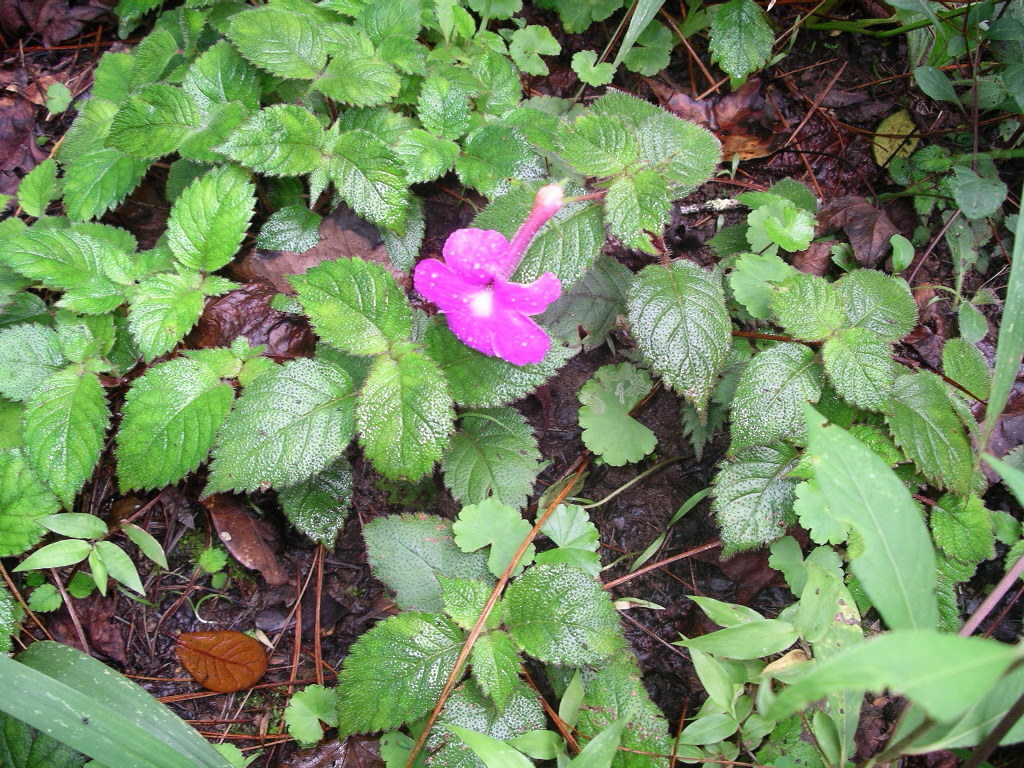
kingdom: Plantae
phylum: Tracheophyta
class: Magnoliopsida
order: Lamiales
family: Gesneriaceae
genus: Achimenes
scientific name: Achimenes grandiflora
